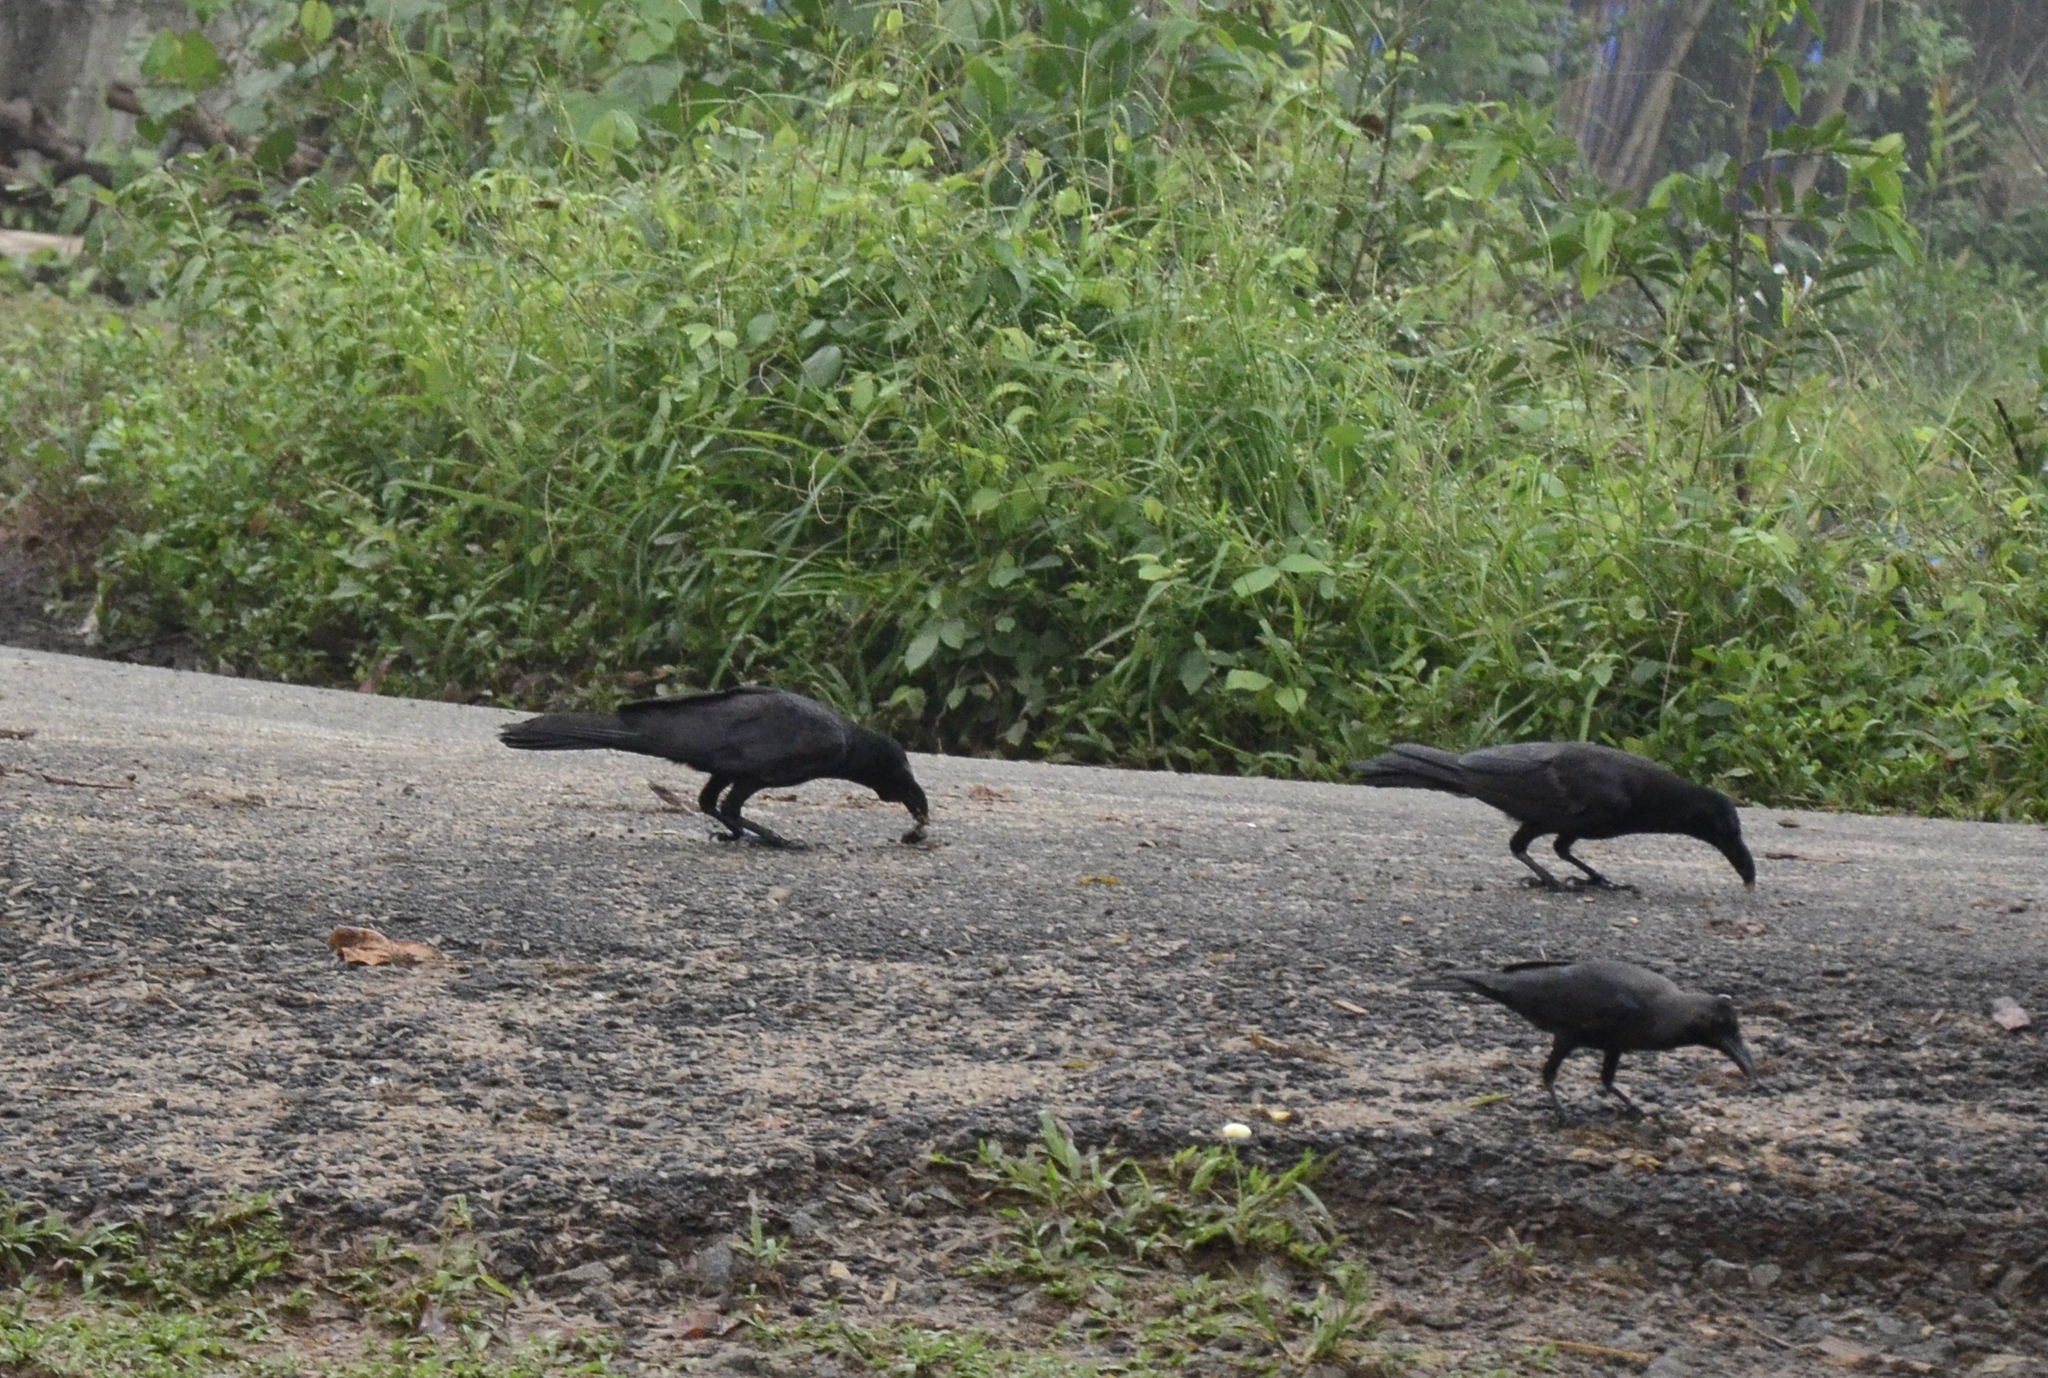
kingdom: Animalia
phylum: Chordata
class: Aves
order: Passeriformes
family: Corvidae
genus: Corvus
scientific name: Corvus macrorhynchos
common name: Large-billed crow
